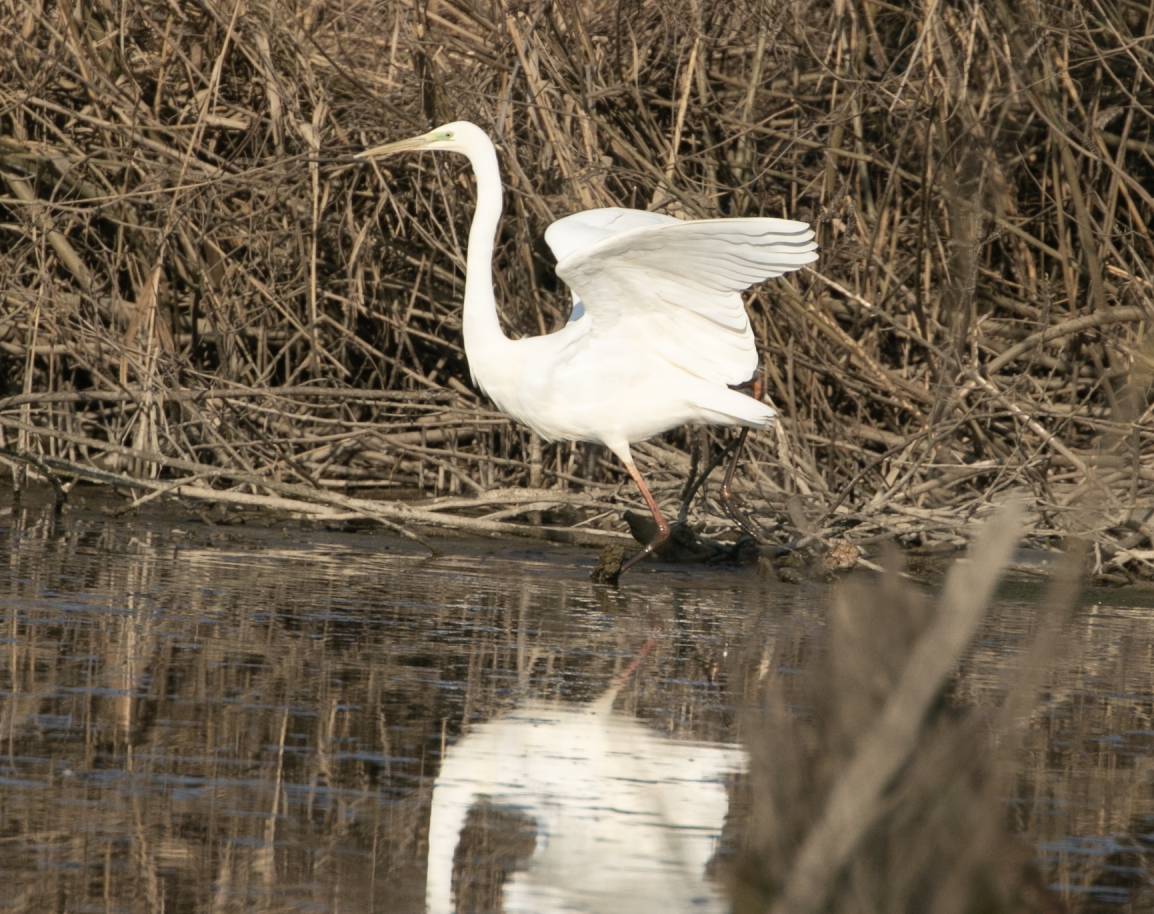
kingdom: Animalia
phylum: Chordata
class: Aves
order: Pelecaniformes
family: Ardeidae
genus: Ardea
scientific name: Ardea alba
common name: Great egret
